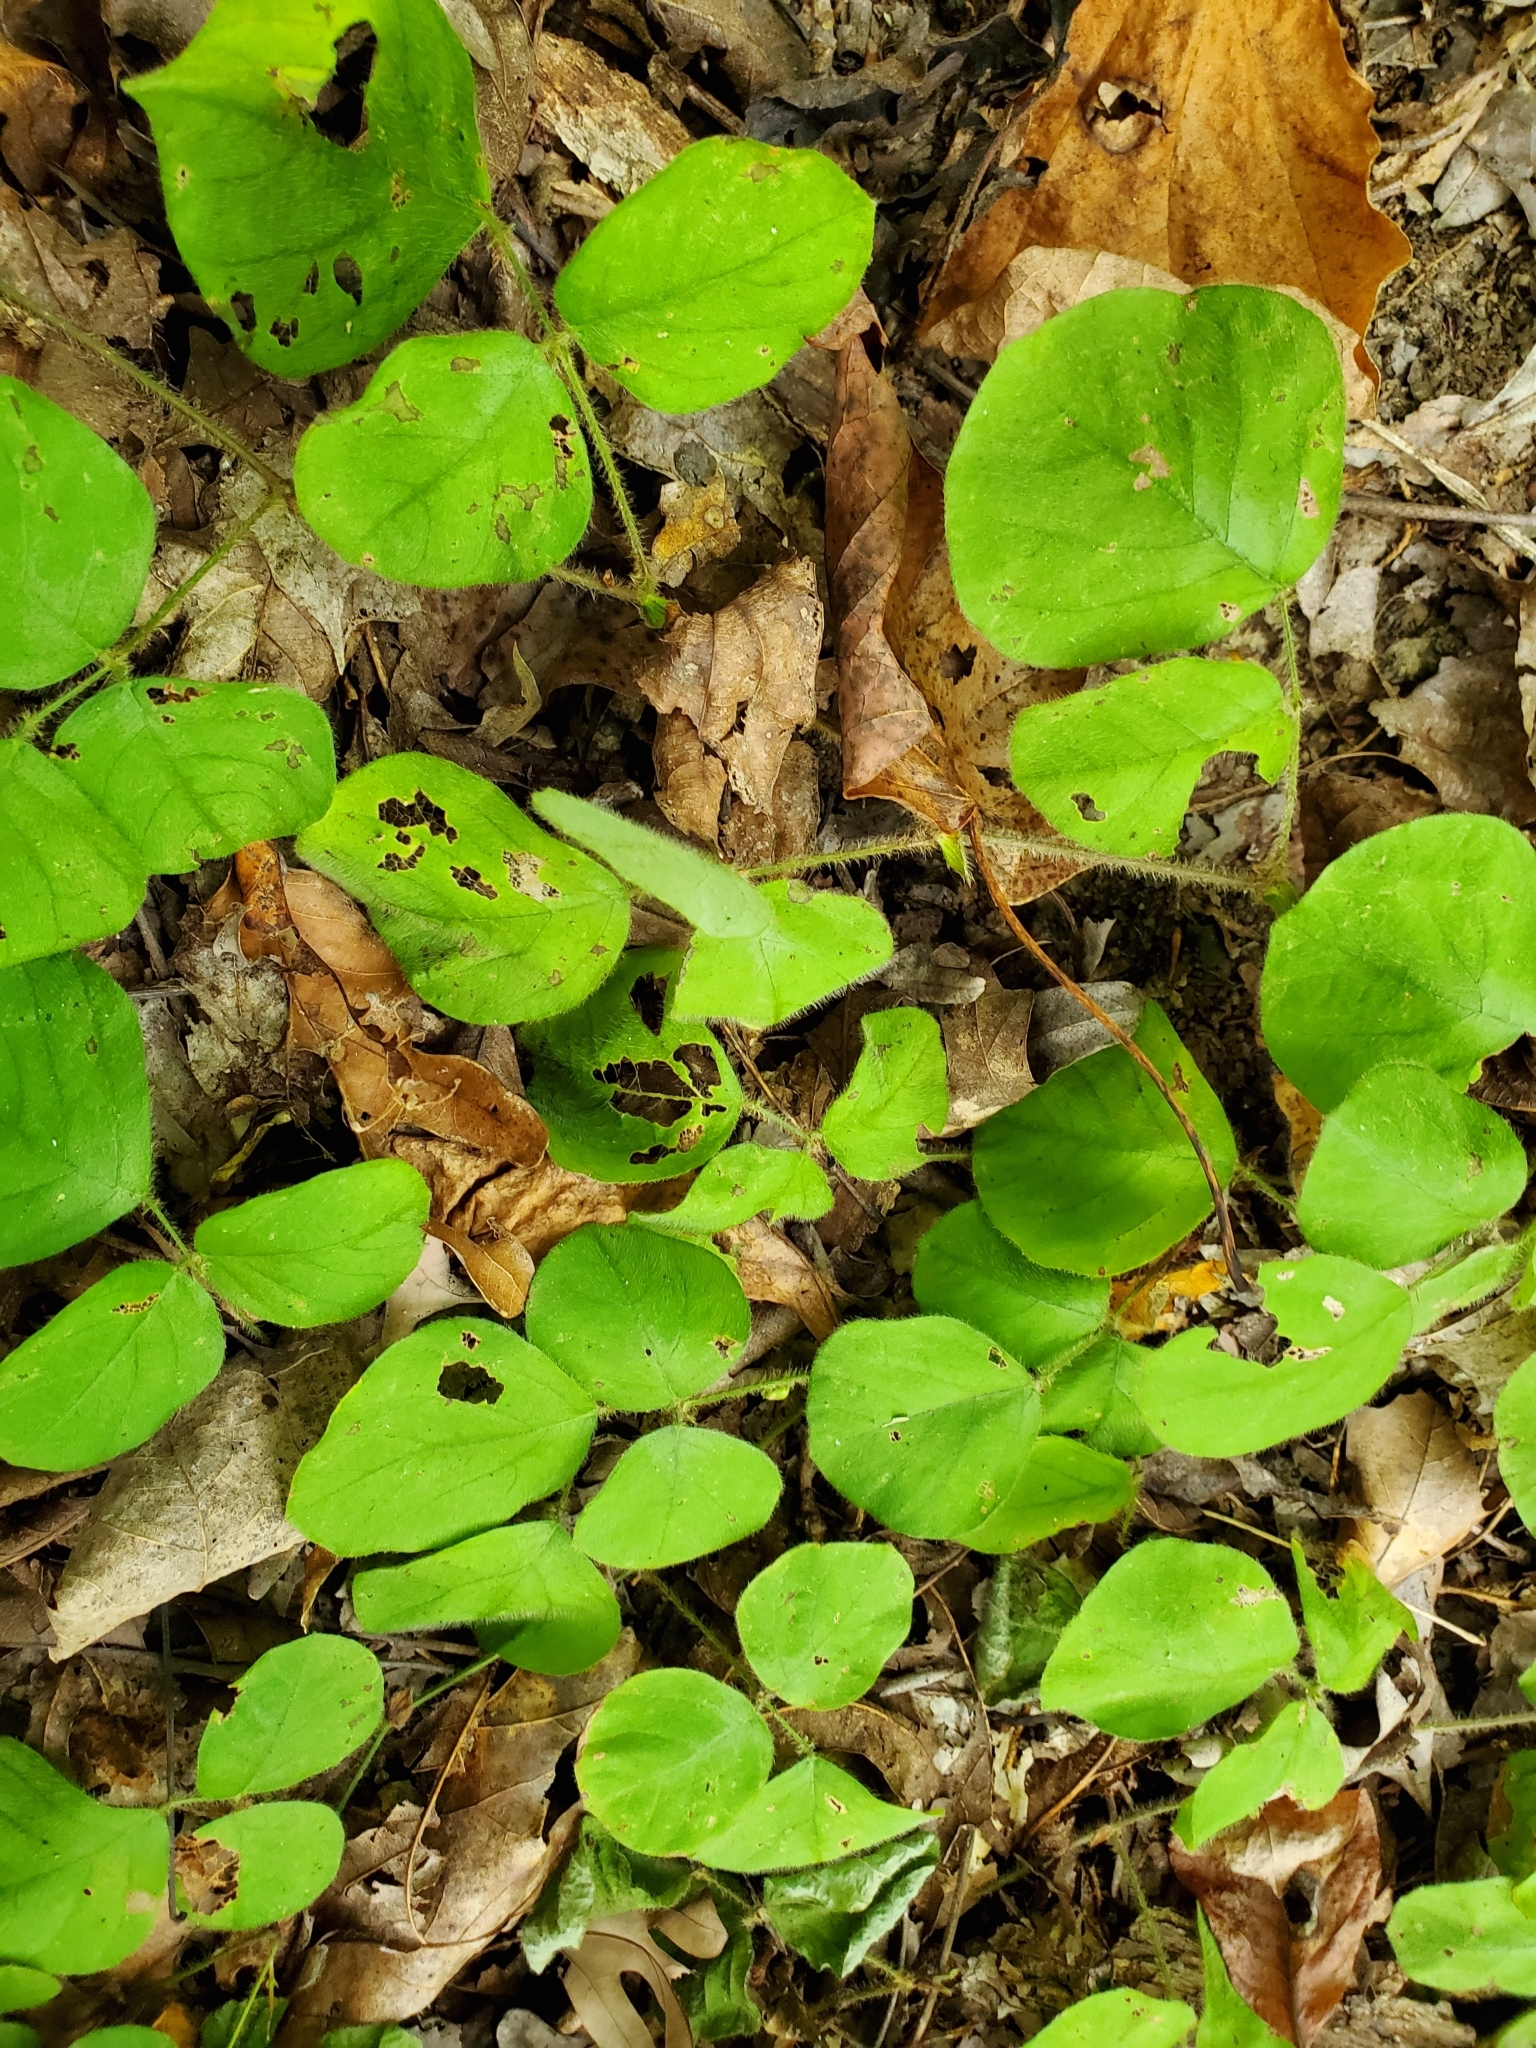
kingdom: Plantae
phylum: Tracheophyta
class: Magnoliopsida
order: Fabales
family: Fabaceae
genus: Desmodium
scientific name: Desmodium rotundifolium
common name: Dollarleaf
